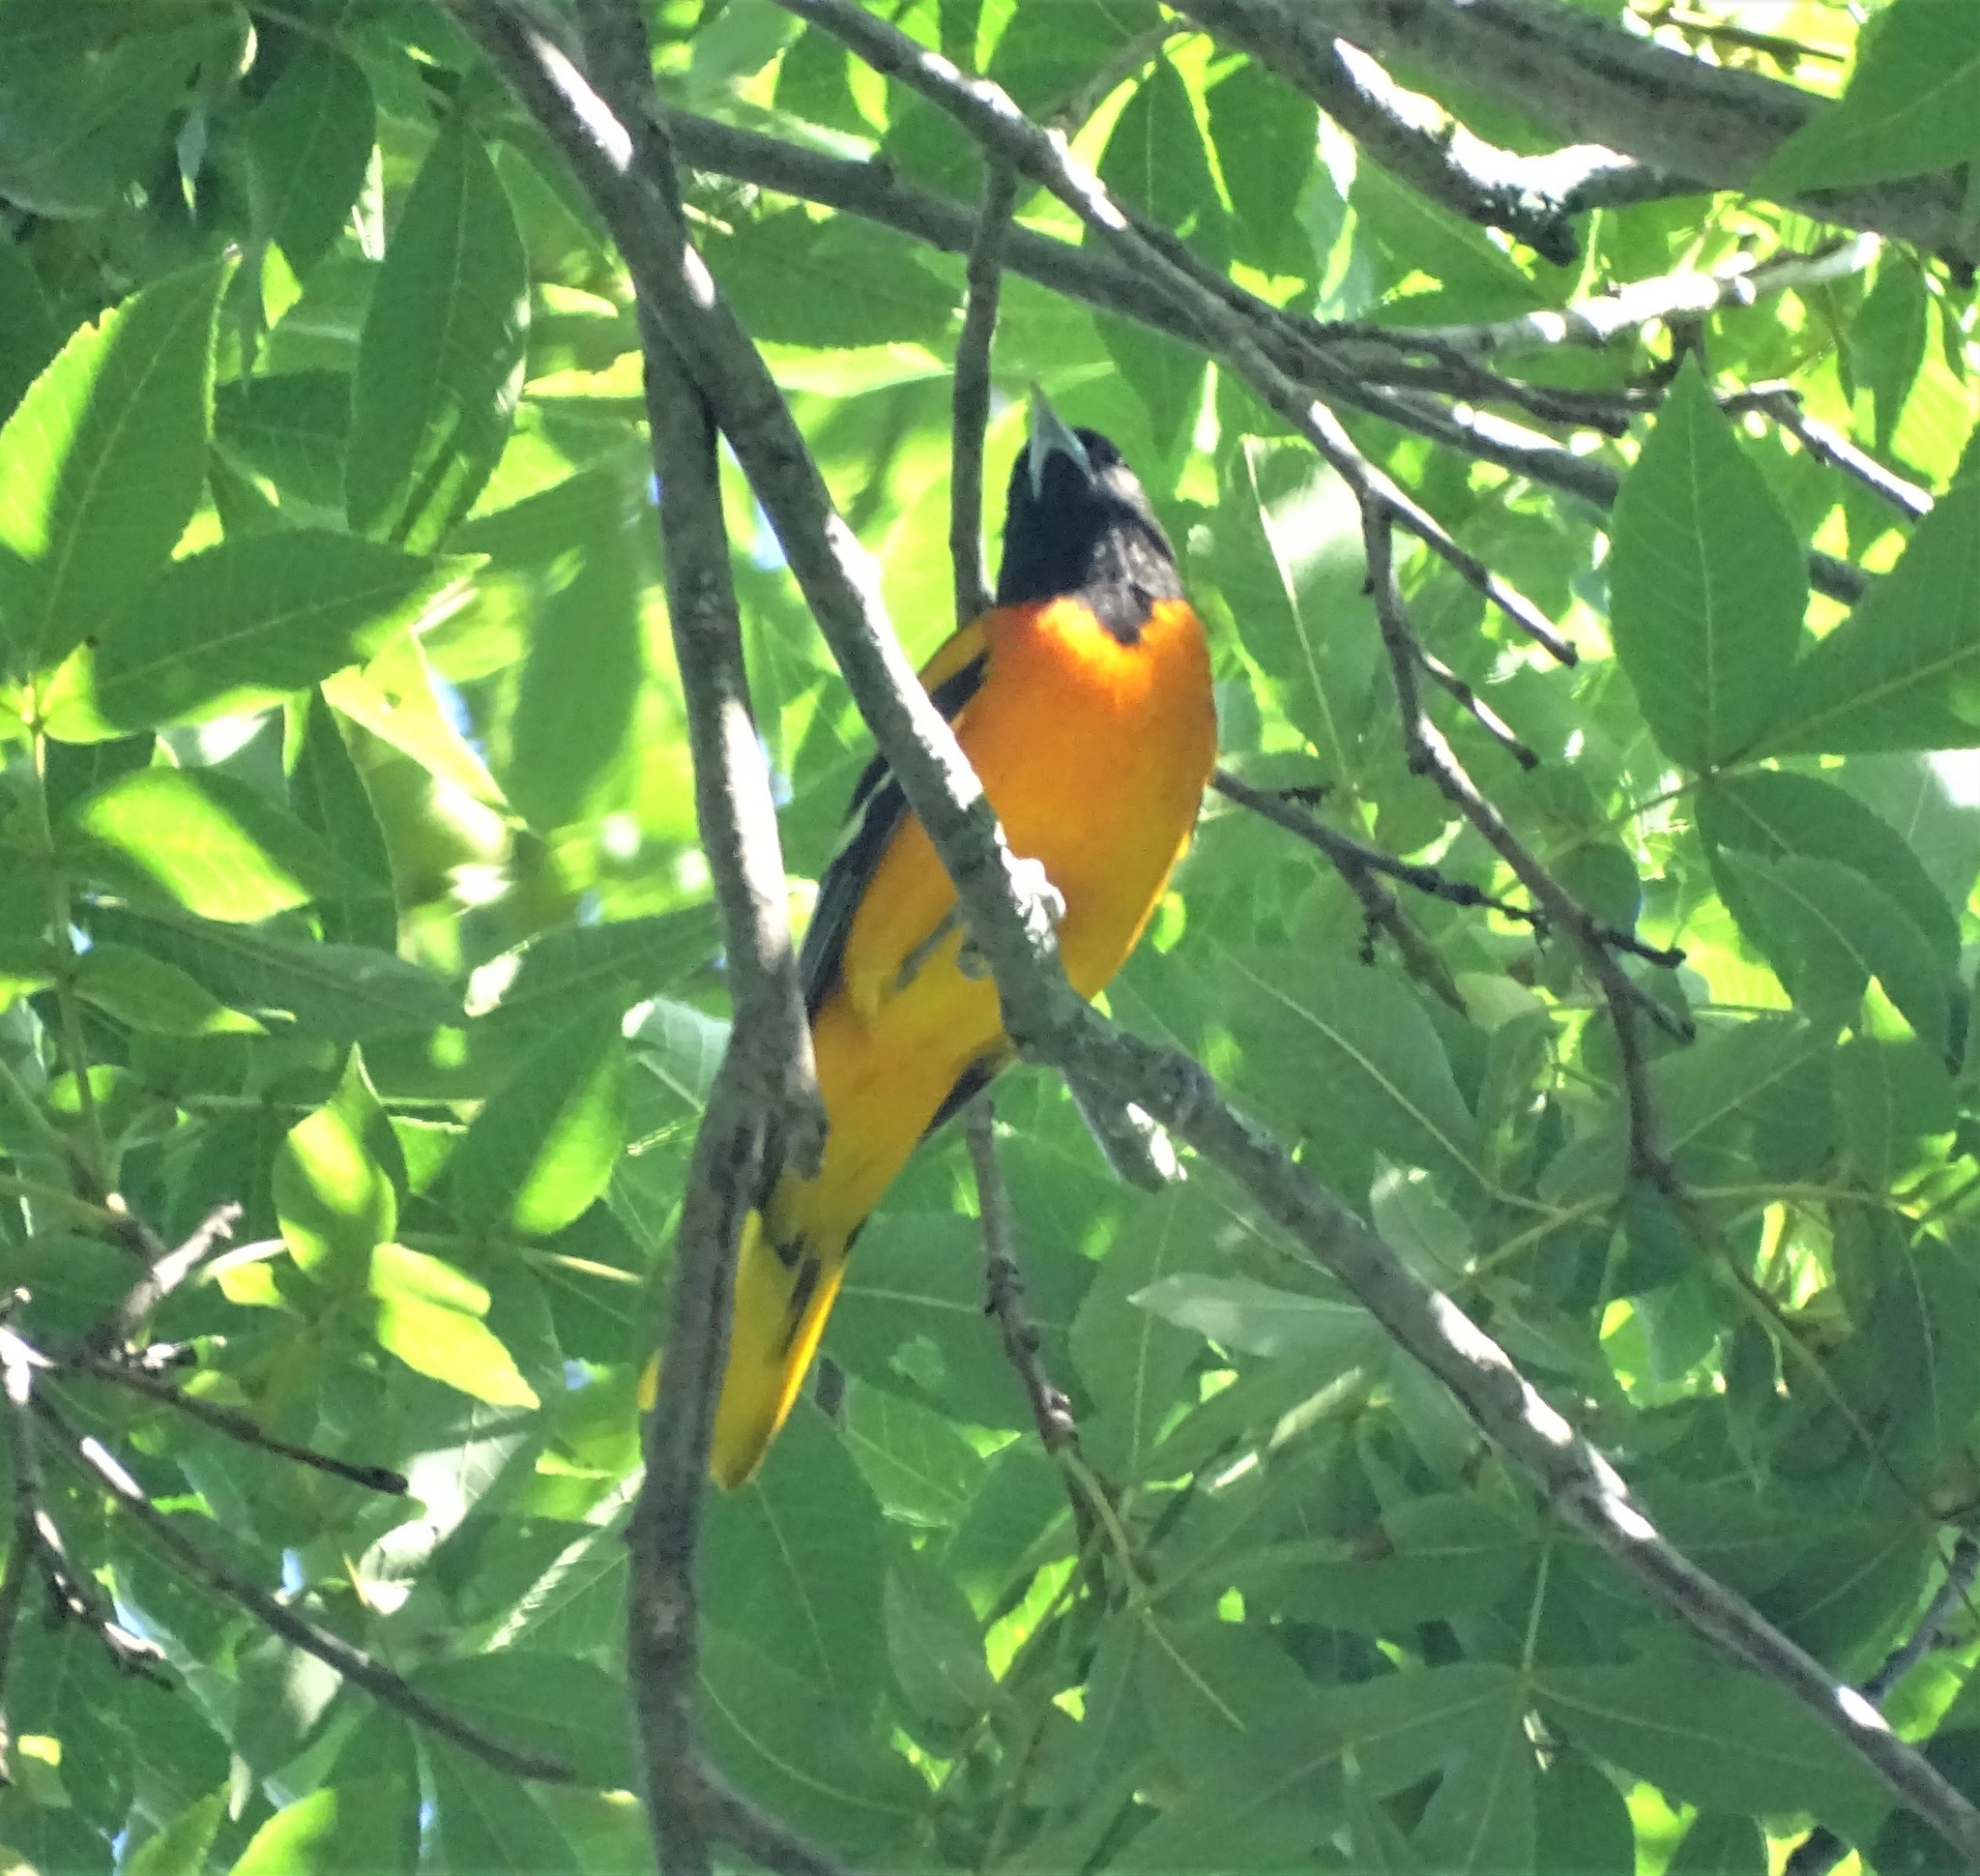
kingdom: Animalia
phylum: Chordata
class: Aves
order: Passeriformes
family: Icteridae
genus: Icterus
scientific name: Icterus galbula
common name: Baltimore oriole
